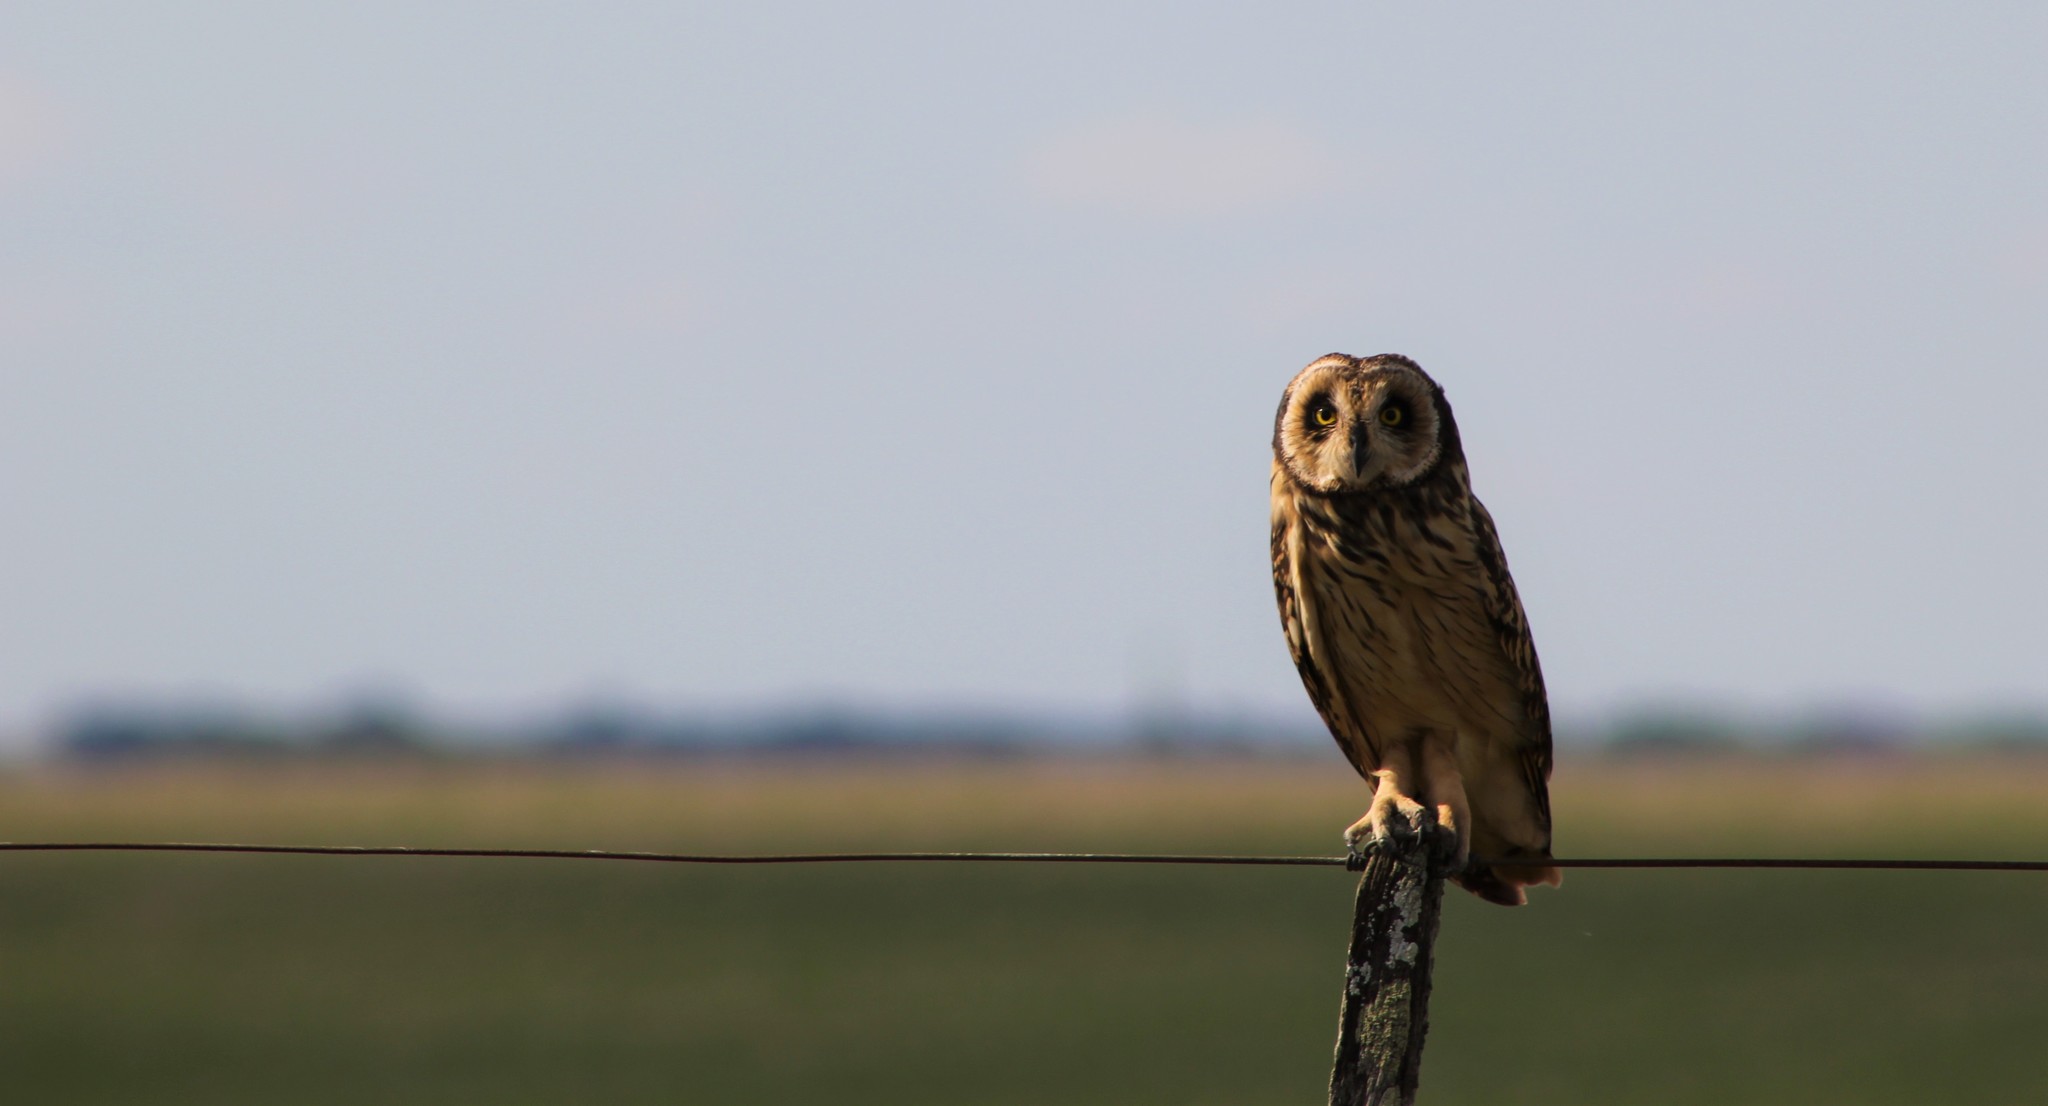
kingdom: Animalia
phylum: Chordata
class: Aves
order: Strigiformes
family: Strigidae
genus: Asio
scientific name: Asio flammeus
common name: Short-eared owl
